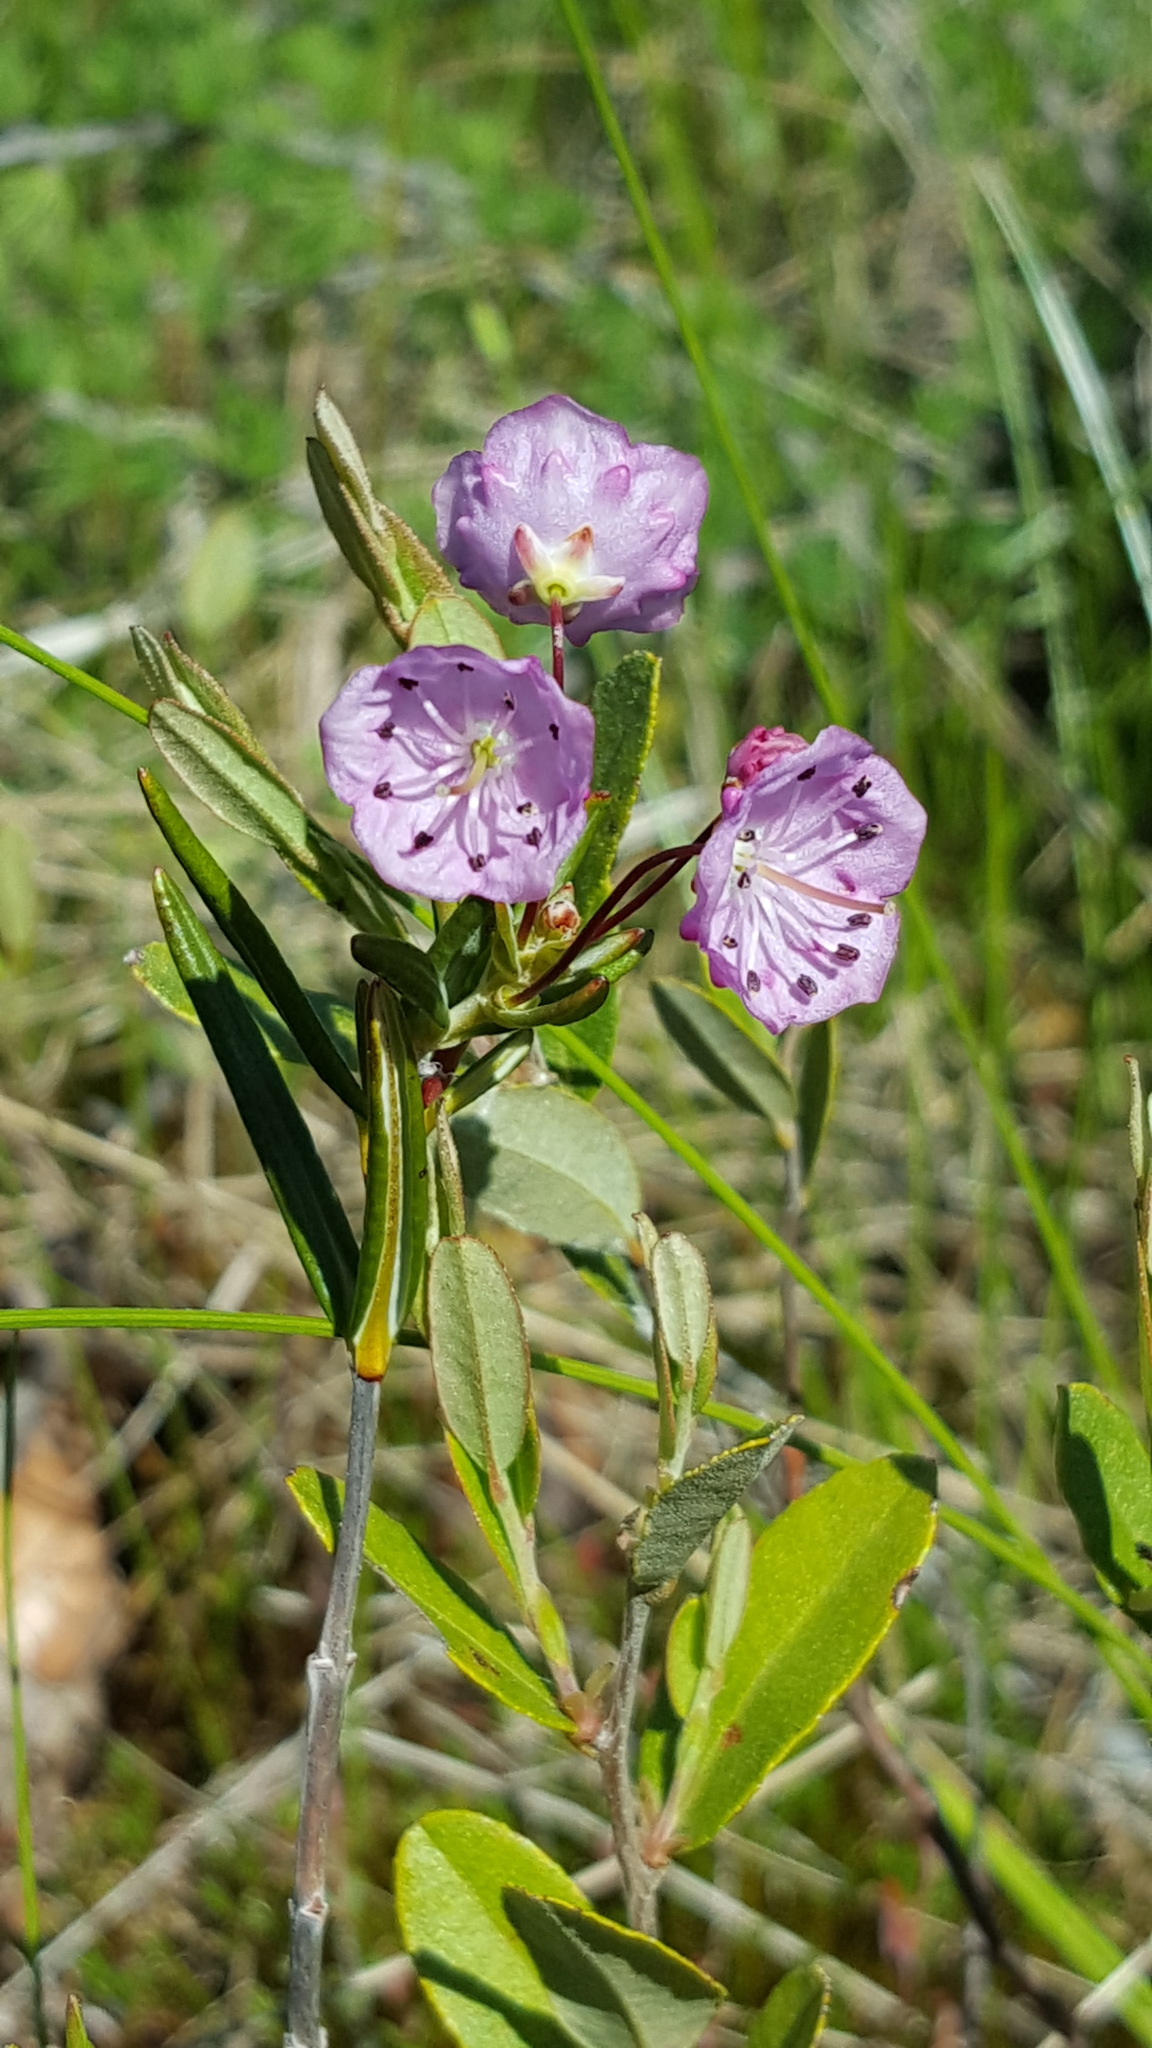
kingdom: Plantae
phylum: Tracheophyta
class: Magnoliopsida
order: Ericales
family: Ericaceae
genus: Kalmia
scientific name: Kalmia polifolia
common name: Bog-laurel
